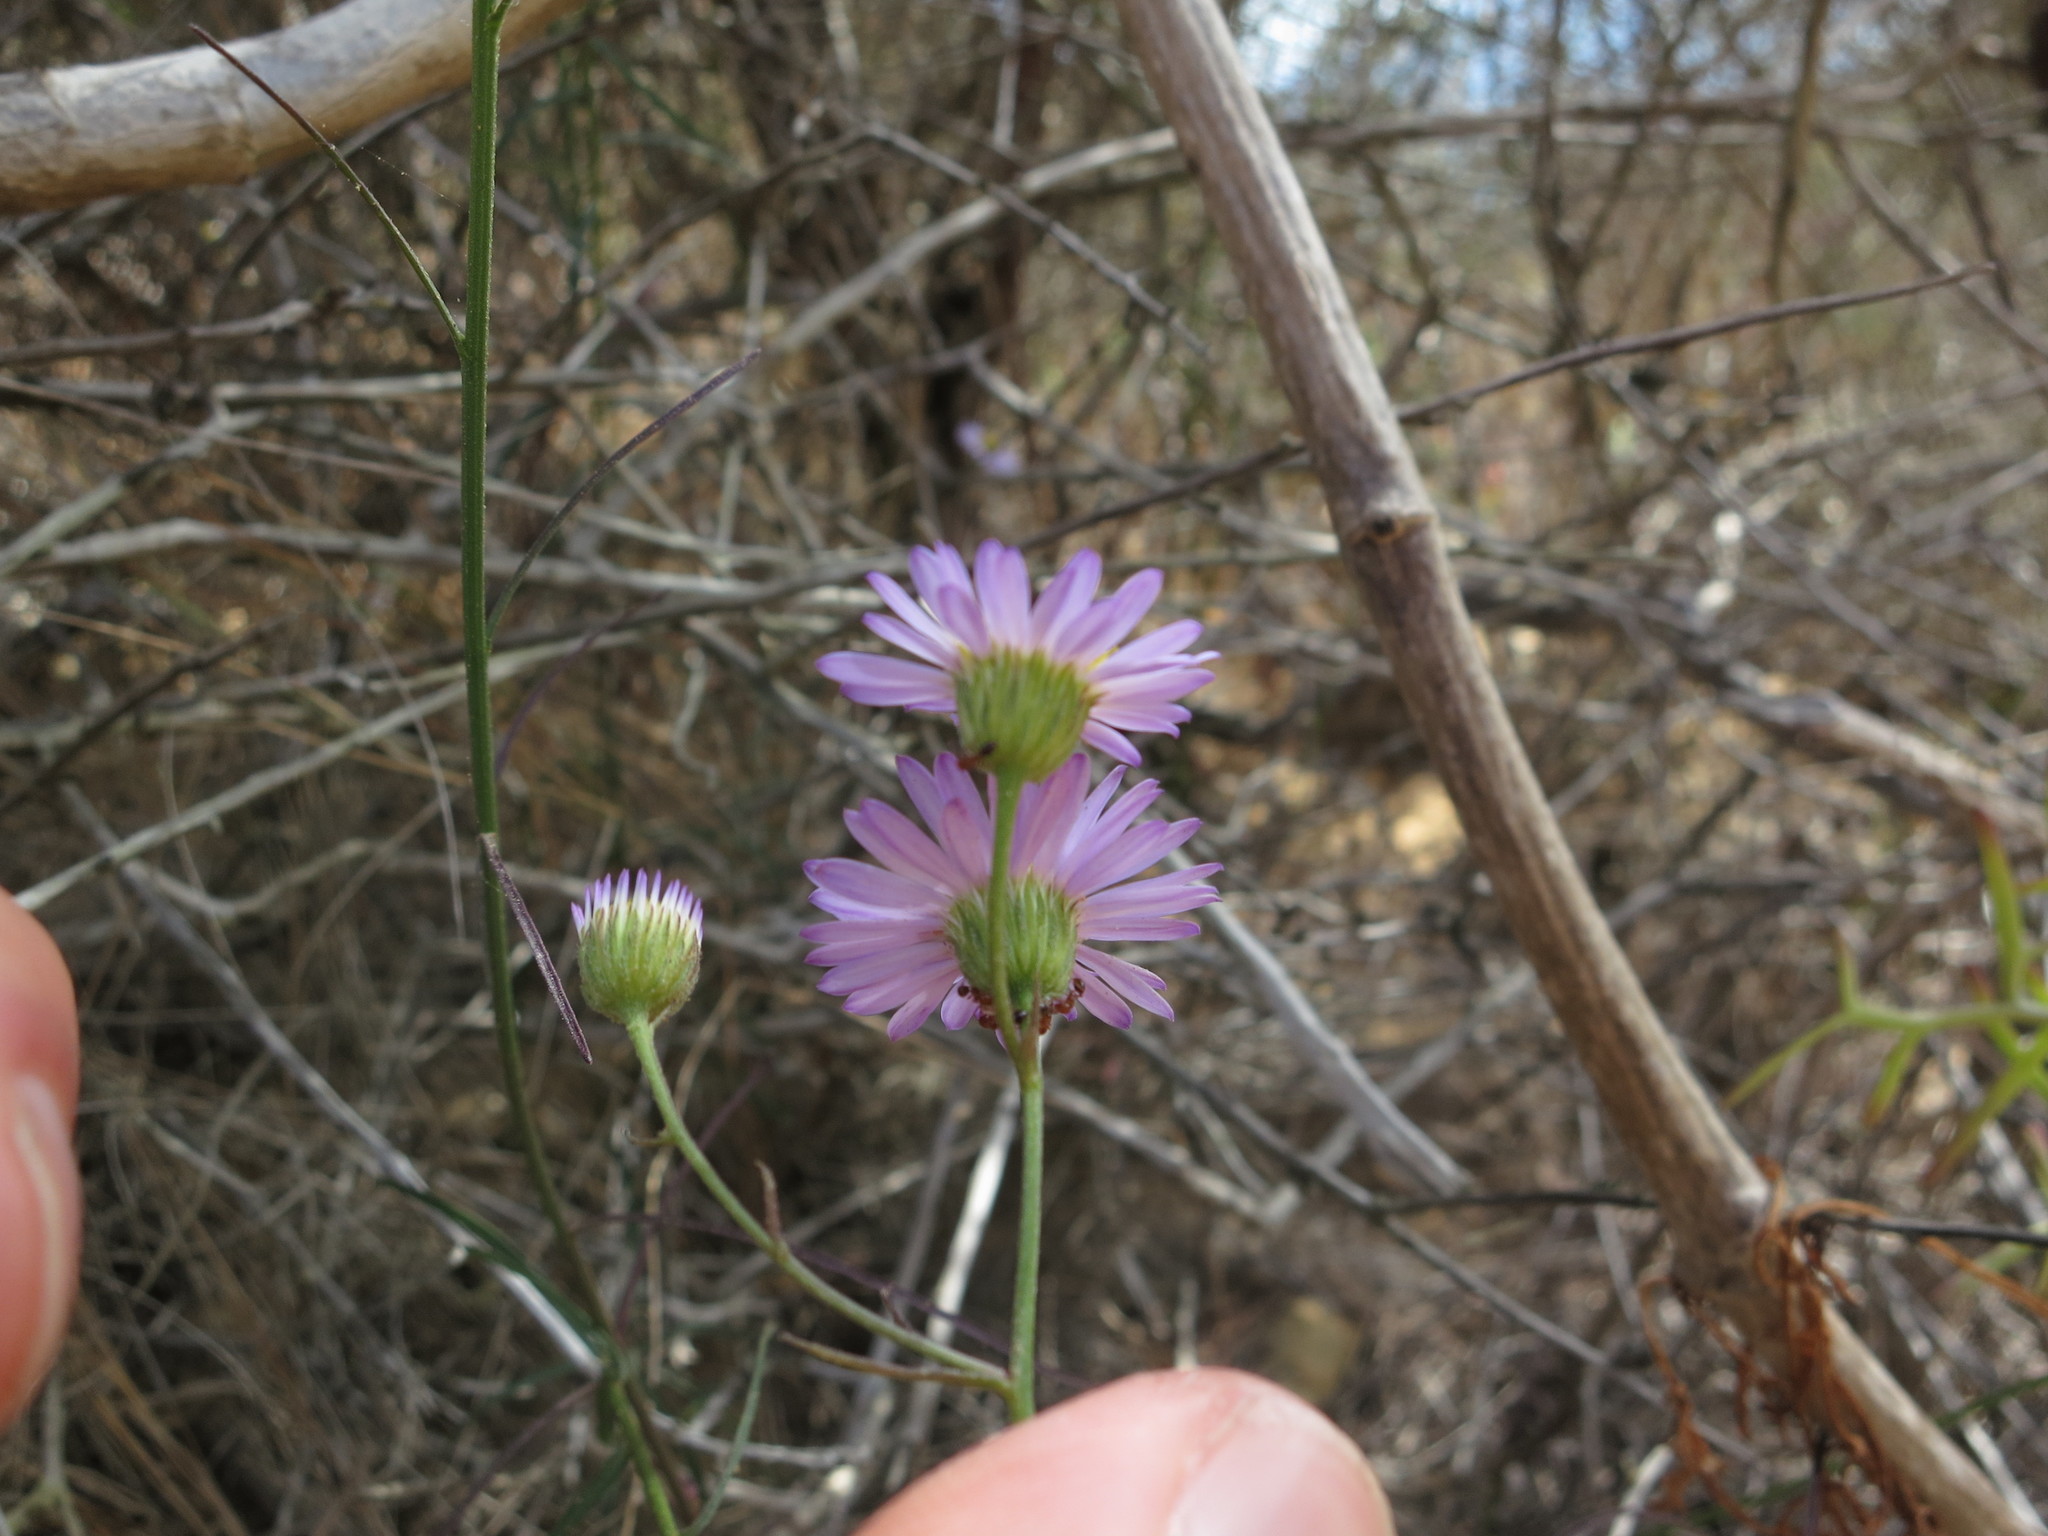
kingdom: Plantae
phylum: Tracheophyta
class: Magnoliopsida
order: Asterales
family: Asteraceae
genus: Erigeron
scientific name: Erigeron foliosus
